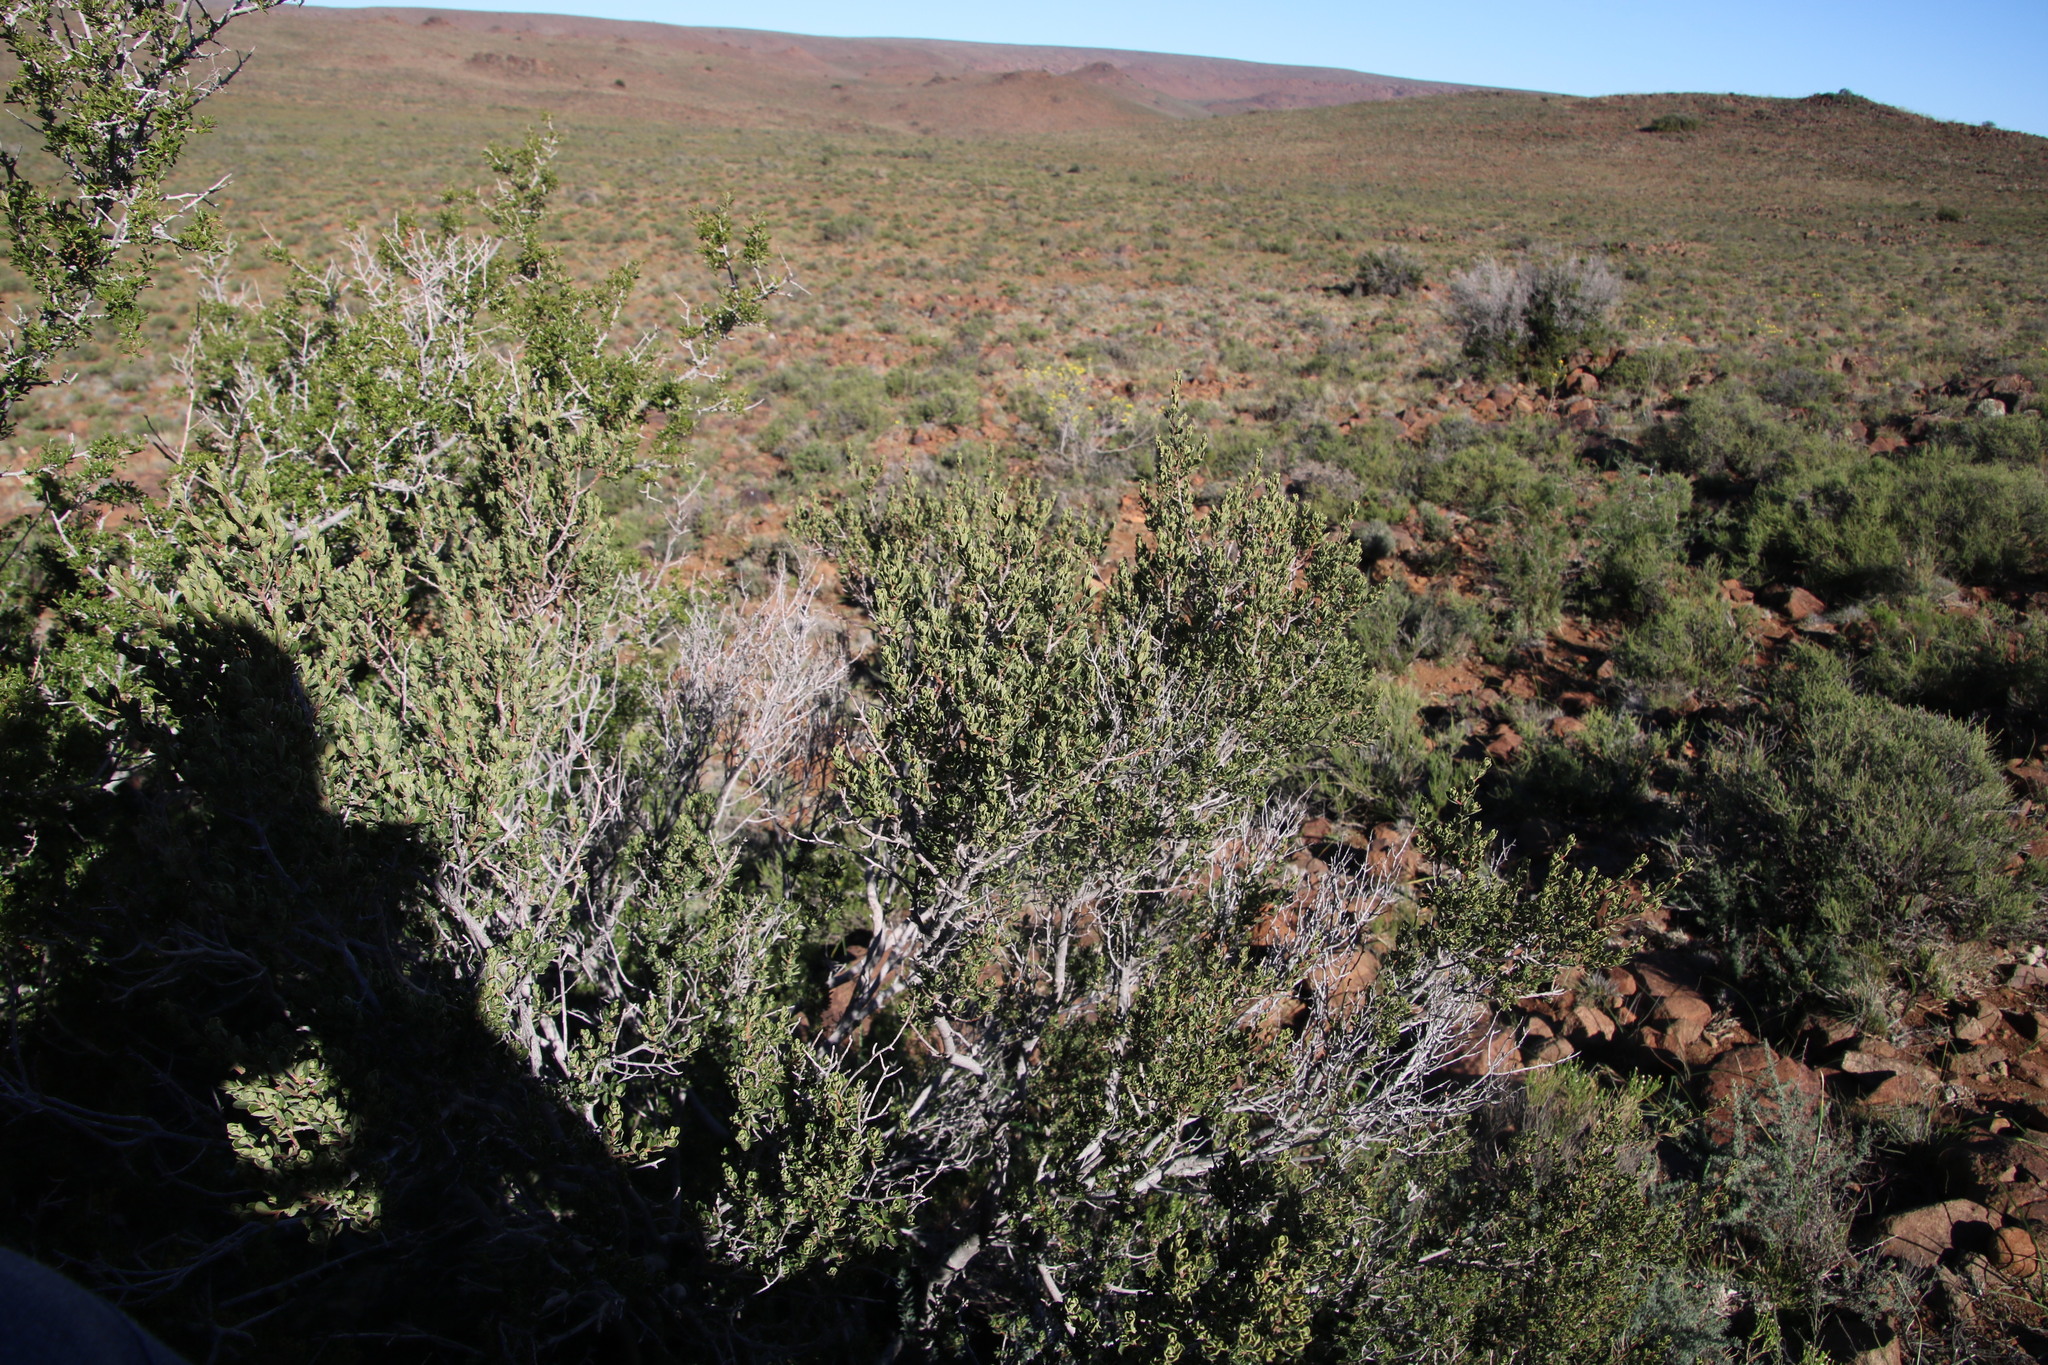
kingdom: Plantae
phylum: Tracheophyta
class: Magnoliopsida
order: Sapindales
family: Anacardiaceae
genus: Searsia
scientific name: Searsia burchellii
